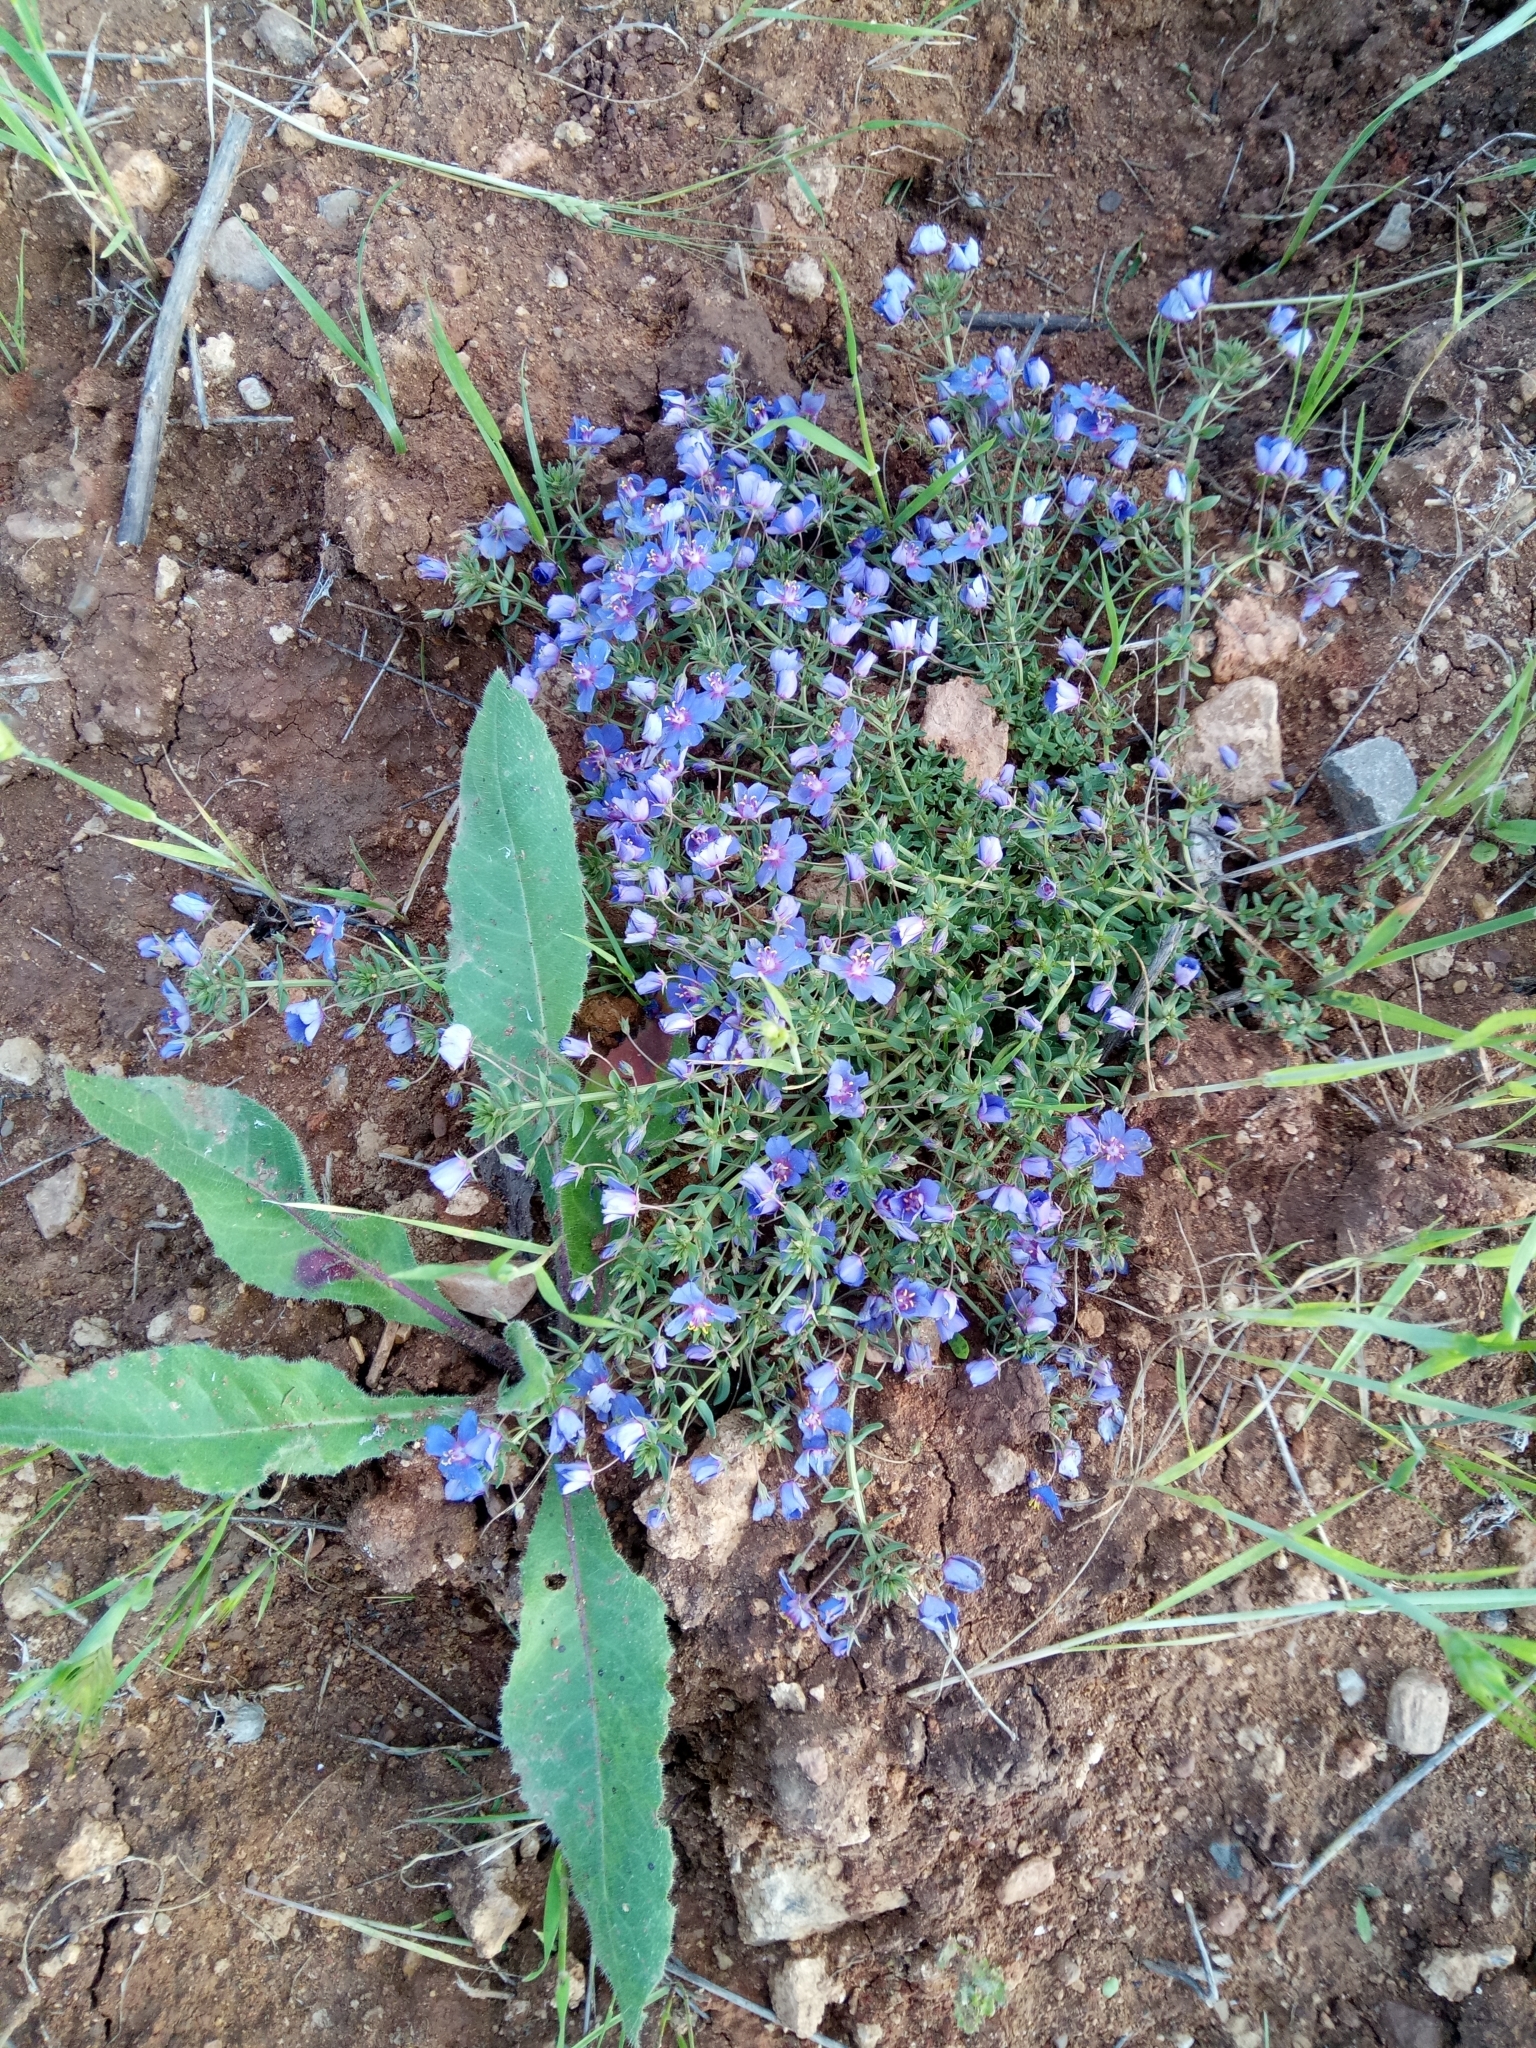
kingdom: Plantae
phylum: Tracheophyta
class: Magnoliopsida
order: Ericales
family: Primulaceae
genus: Lysimachia
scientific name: Lysimachia monelli
